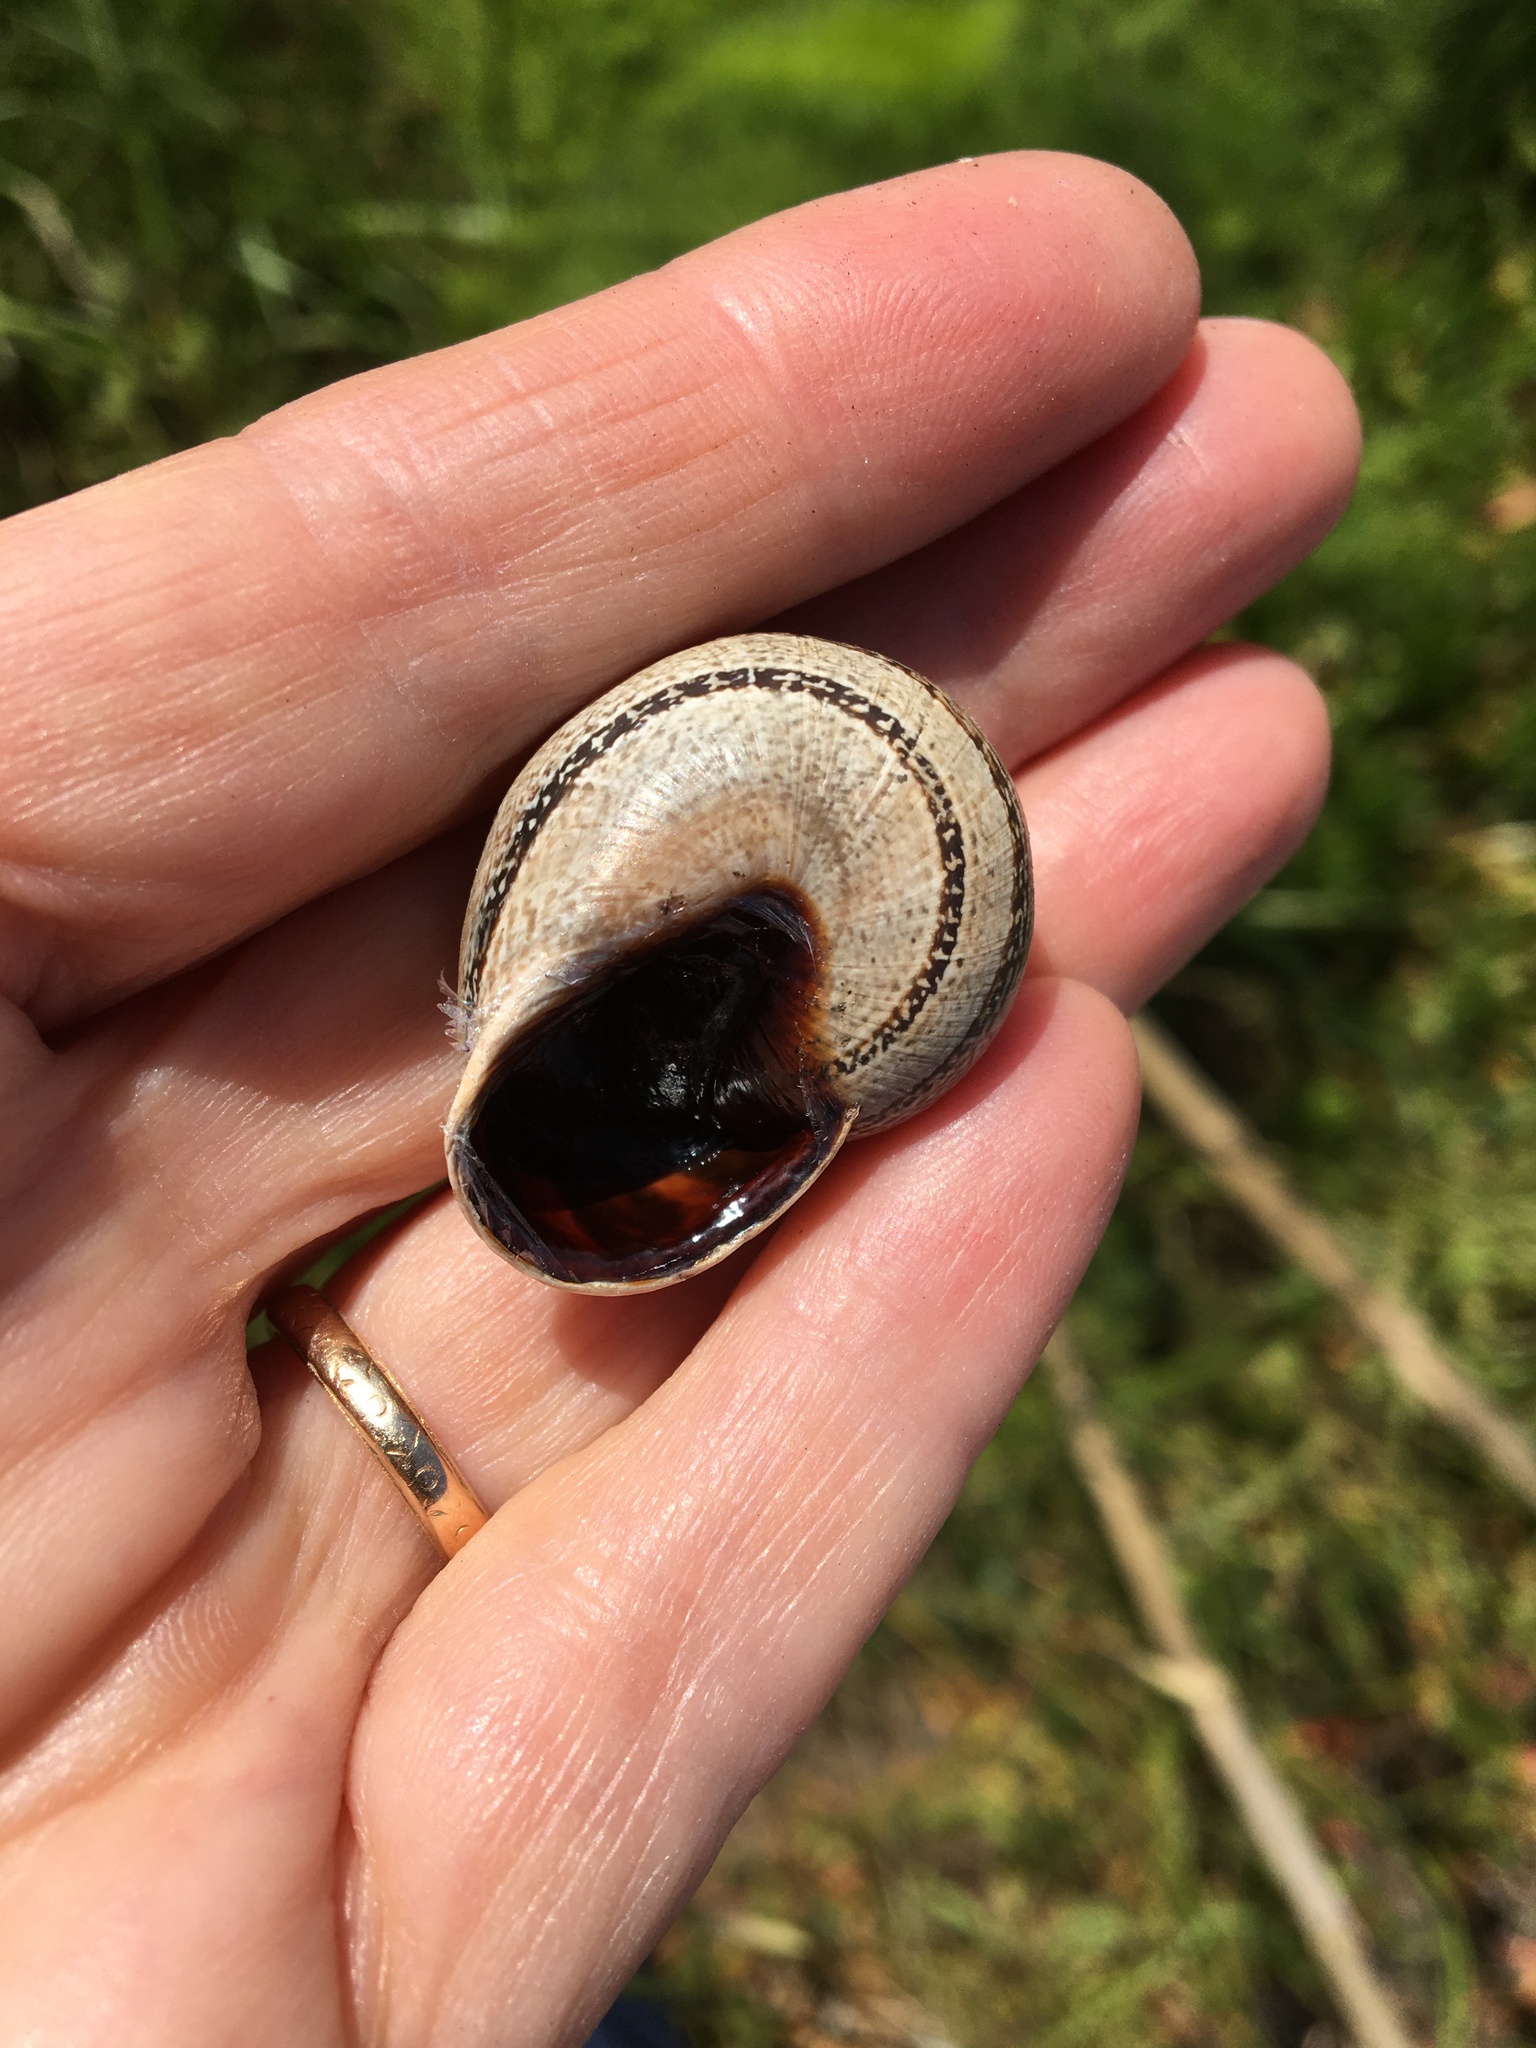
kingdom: Animalia
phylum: Mollusca
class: Gastropoda
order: Stylommatophora
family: Helicidae
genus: Otala
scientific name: Otala lactea
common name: Milk snail
